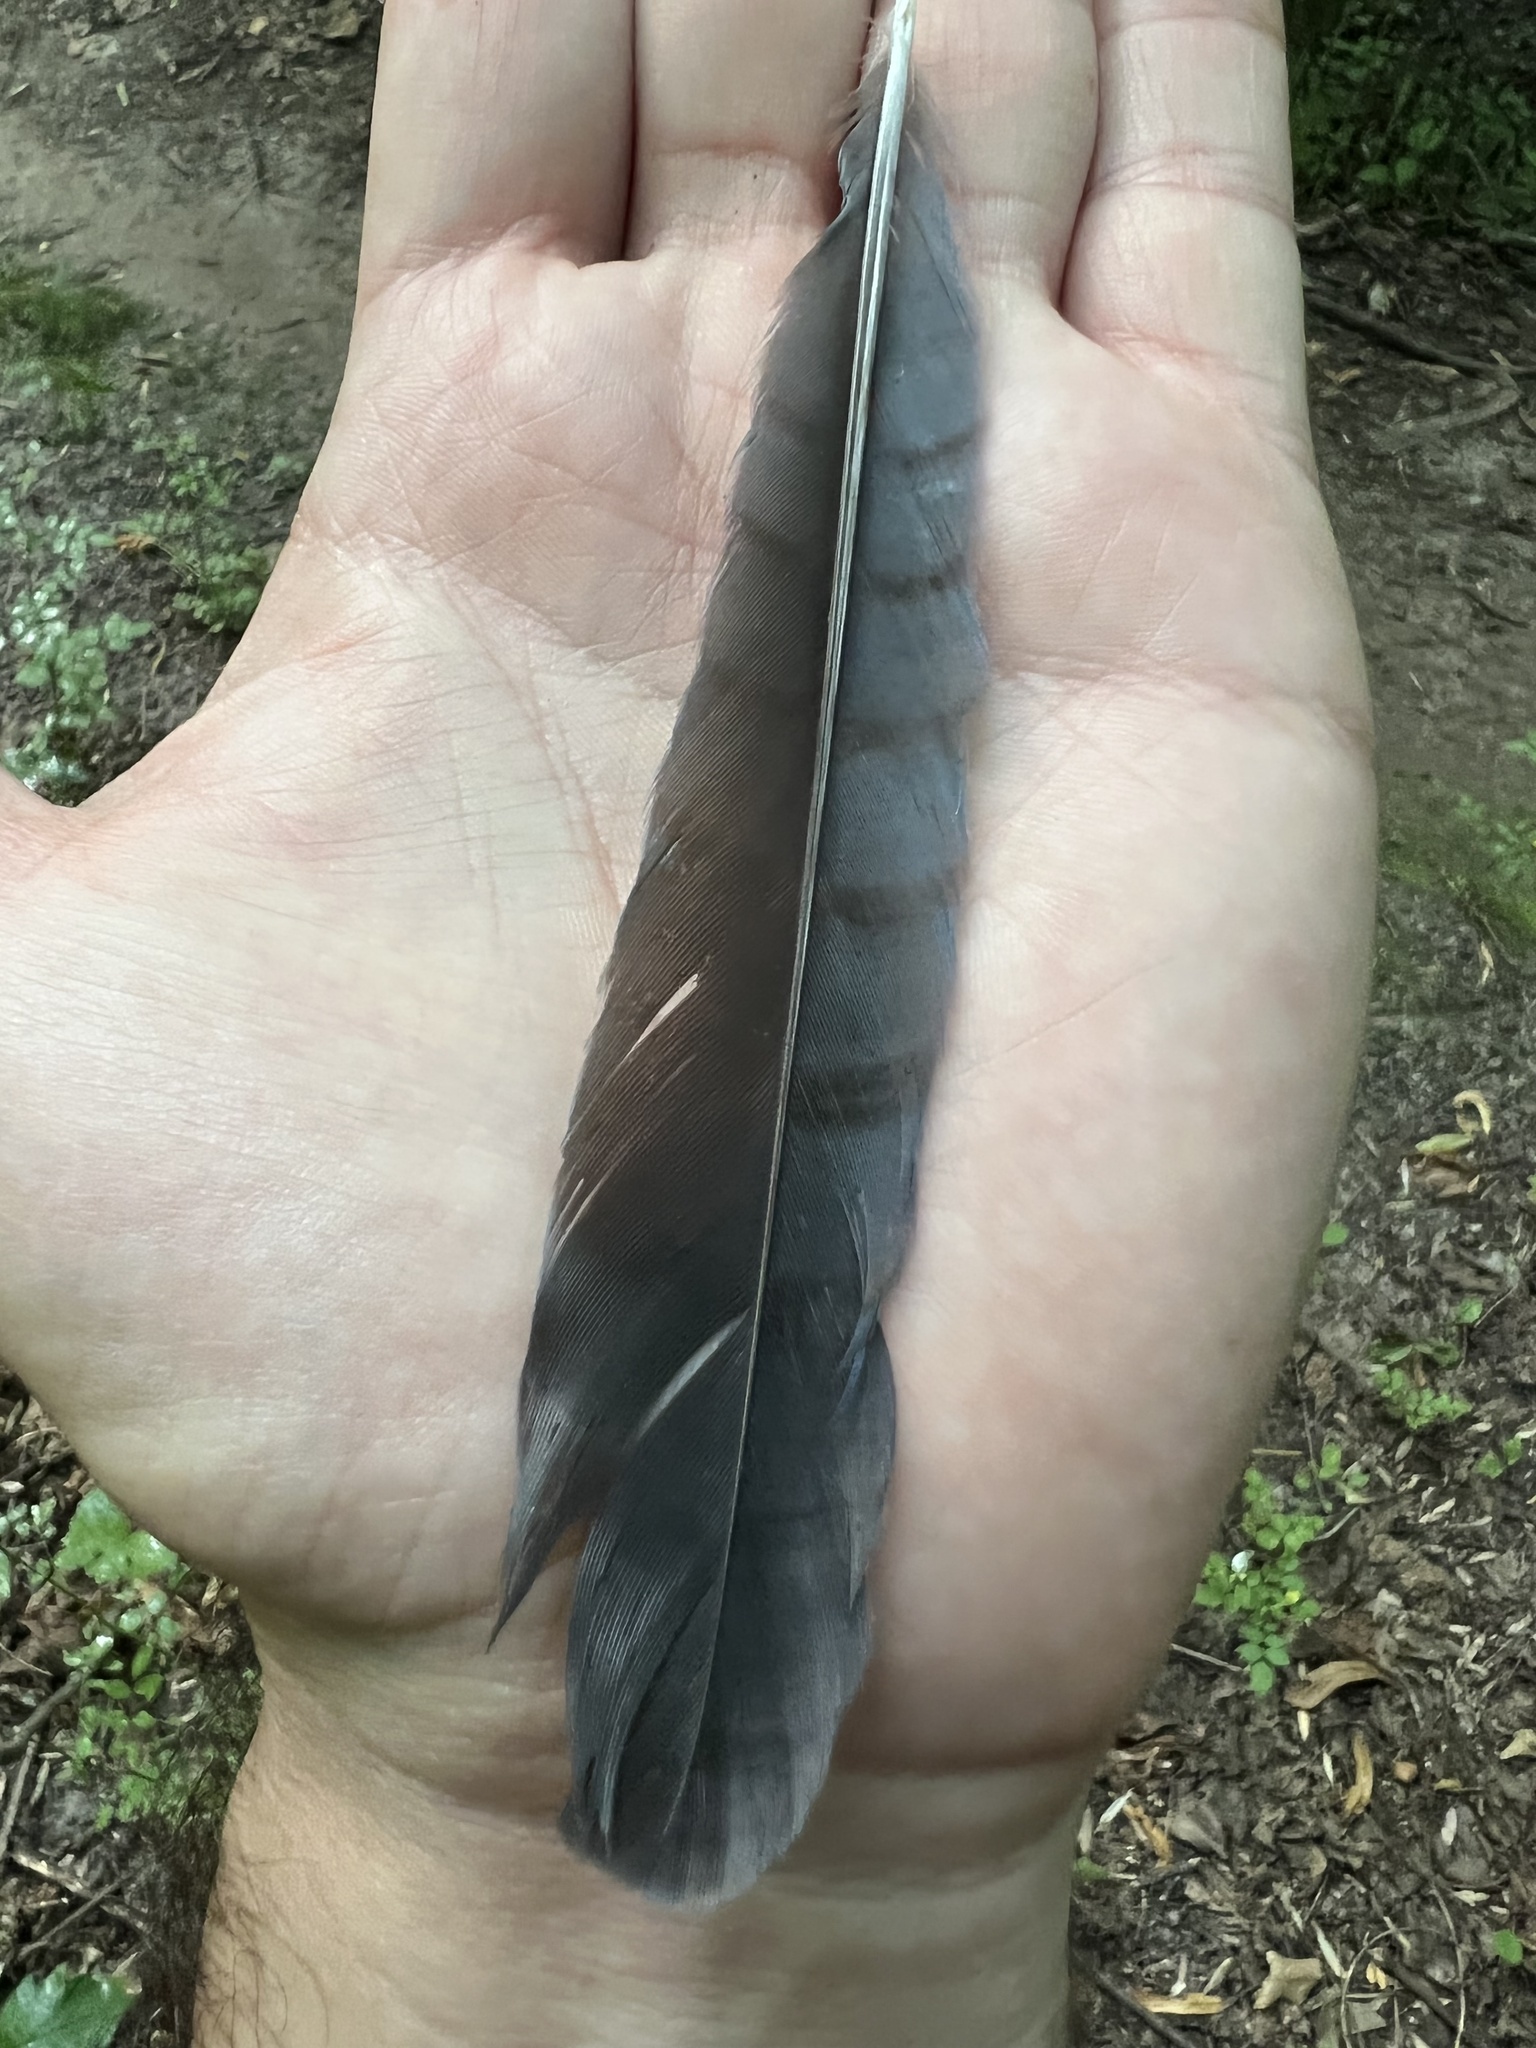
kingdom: Animalia
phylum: Chordata
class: Aves
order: Passeriformes
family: Corvidae
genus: Cyanocitta
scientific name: Cyanocitta cristata
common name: Blue jay
